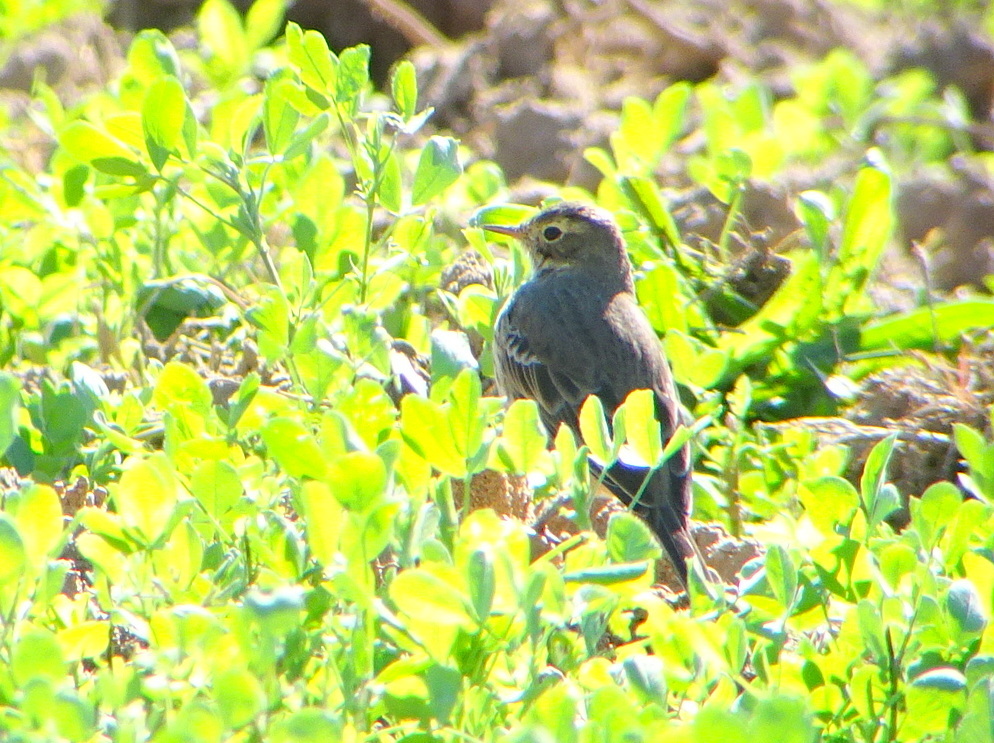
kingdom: Animalia
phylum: Chordata
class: Aves
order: Passeriformes
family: Motacillidae
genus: Anthus
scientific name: Anthus rubescens
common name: Buff-bellied pipit
